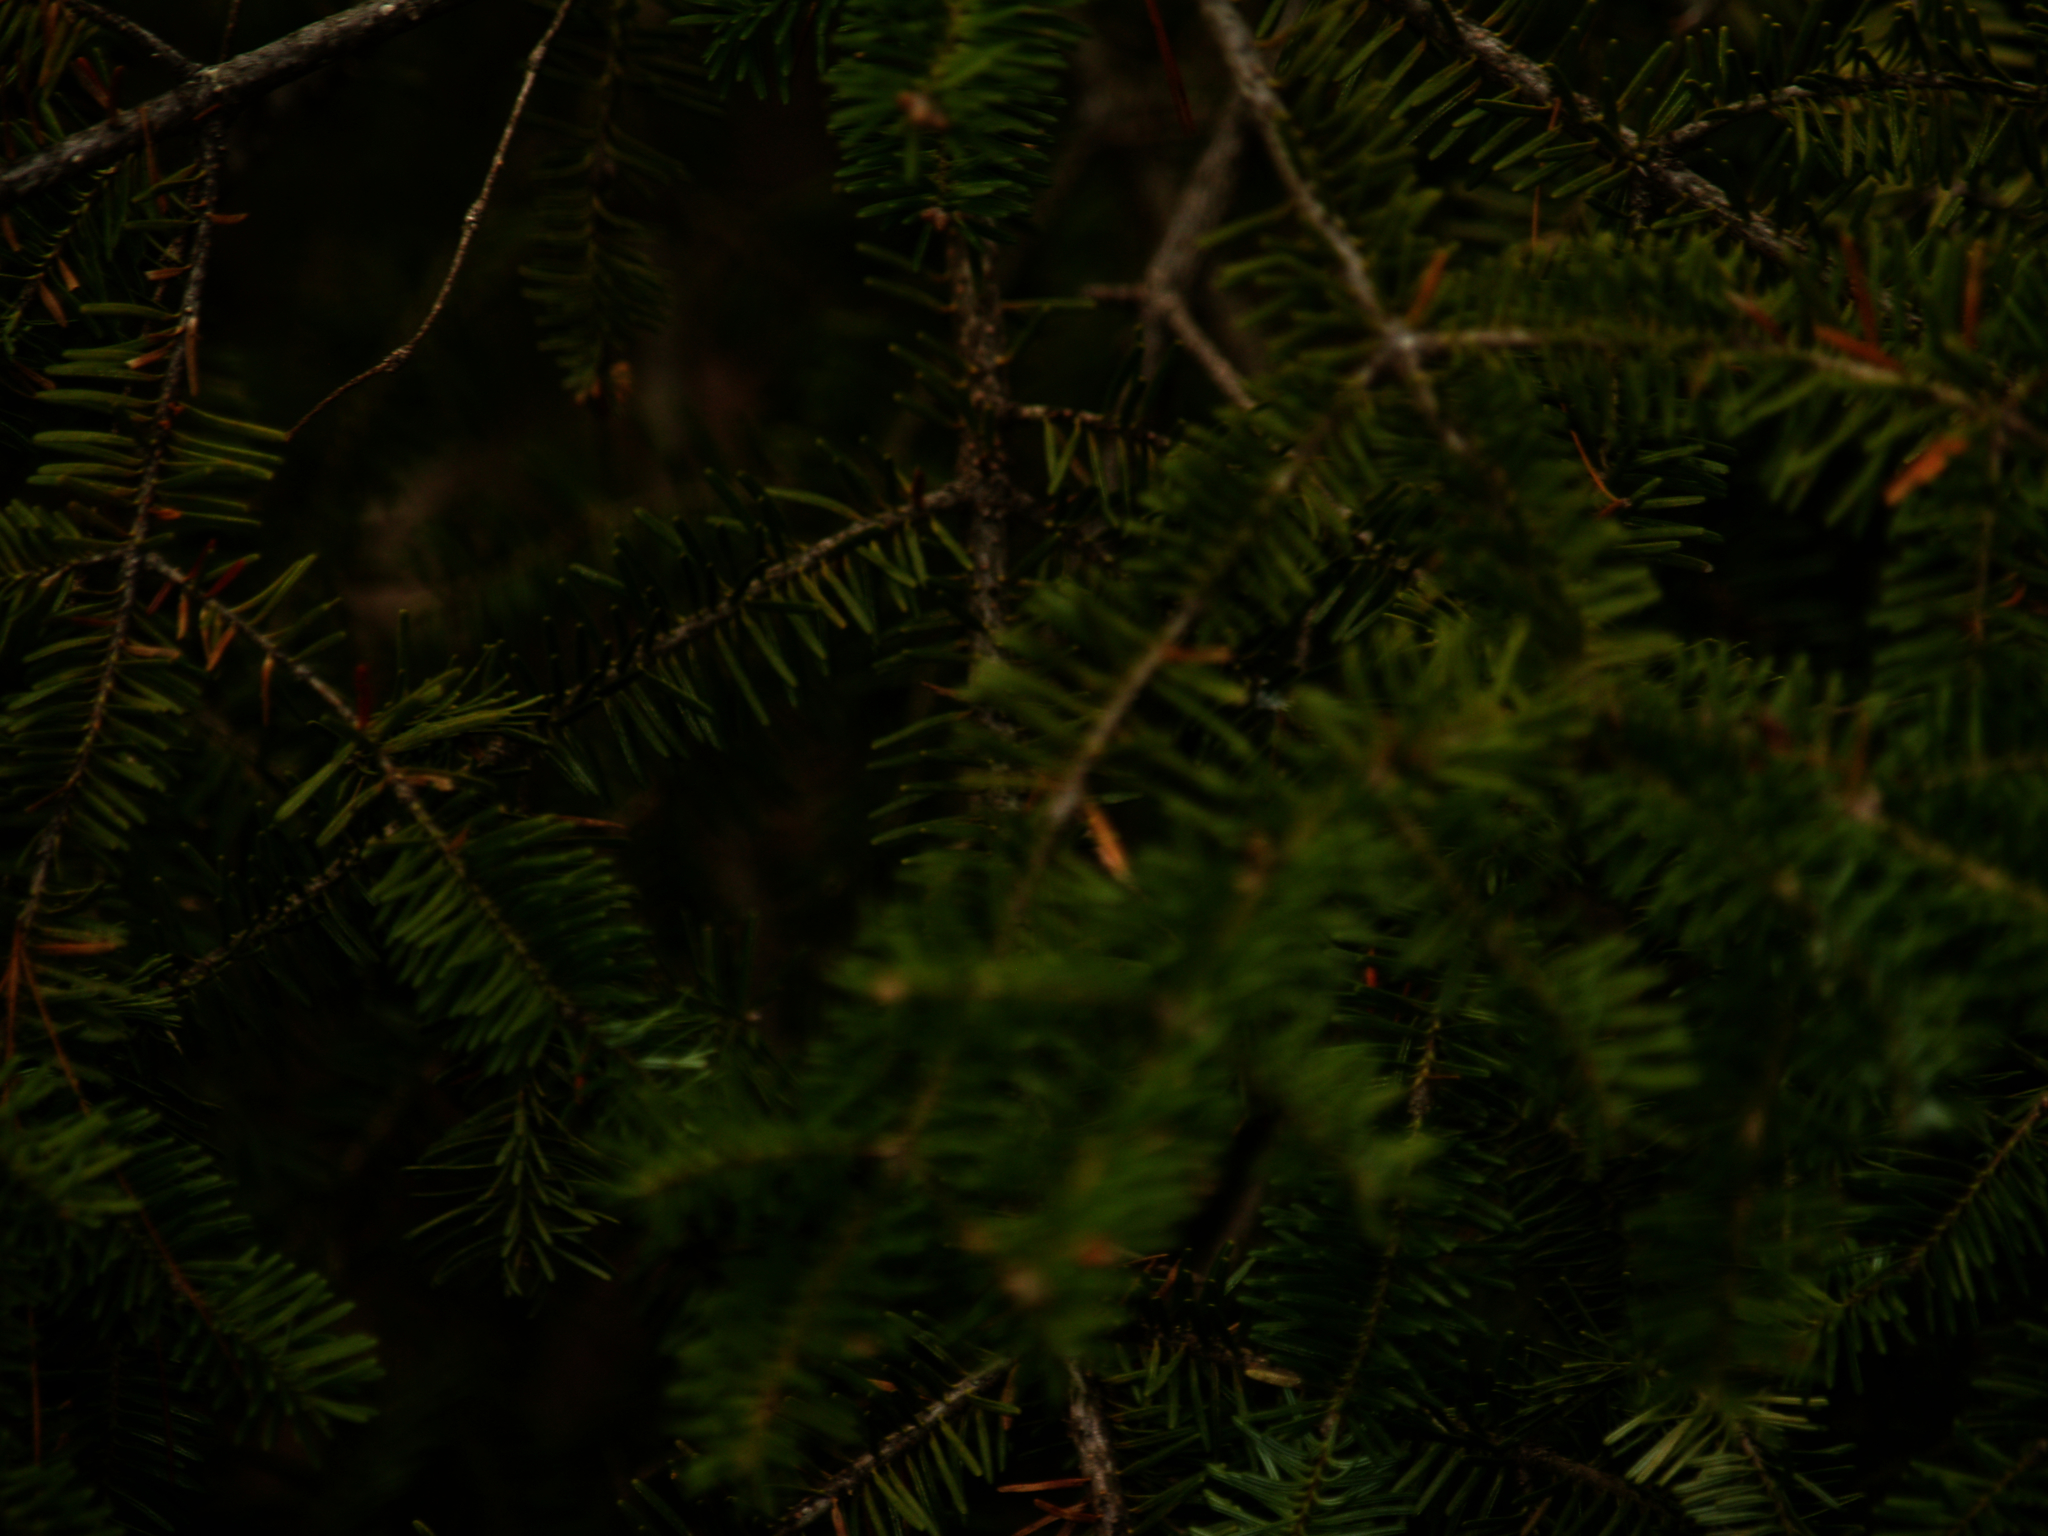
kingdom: Plantae
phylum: Tracheophyta
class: Pinopsida
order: Pinales
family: Pinaceae
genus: Abies
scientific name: Abies balsamea
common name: Balsam fir
